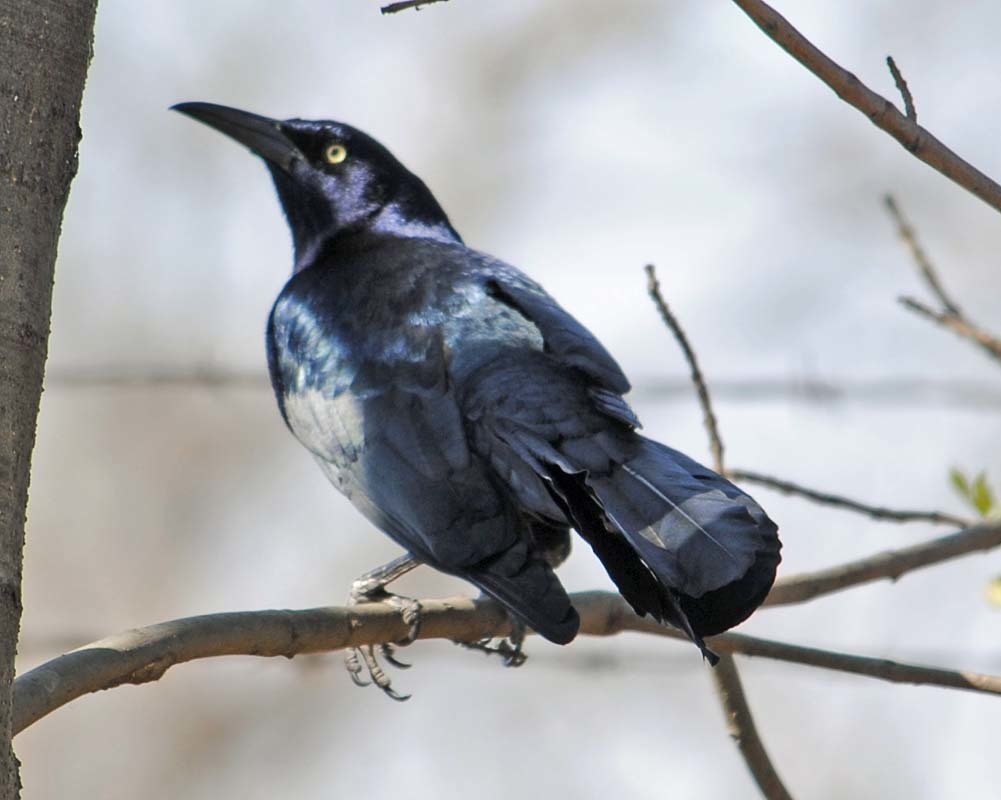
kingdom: Animalia
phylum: Chordata
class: Aves
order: Passeriformes
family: Icteridae
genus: Quiscalus
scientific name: Quiscalus mexicanus
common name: Great-tailed grackle
